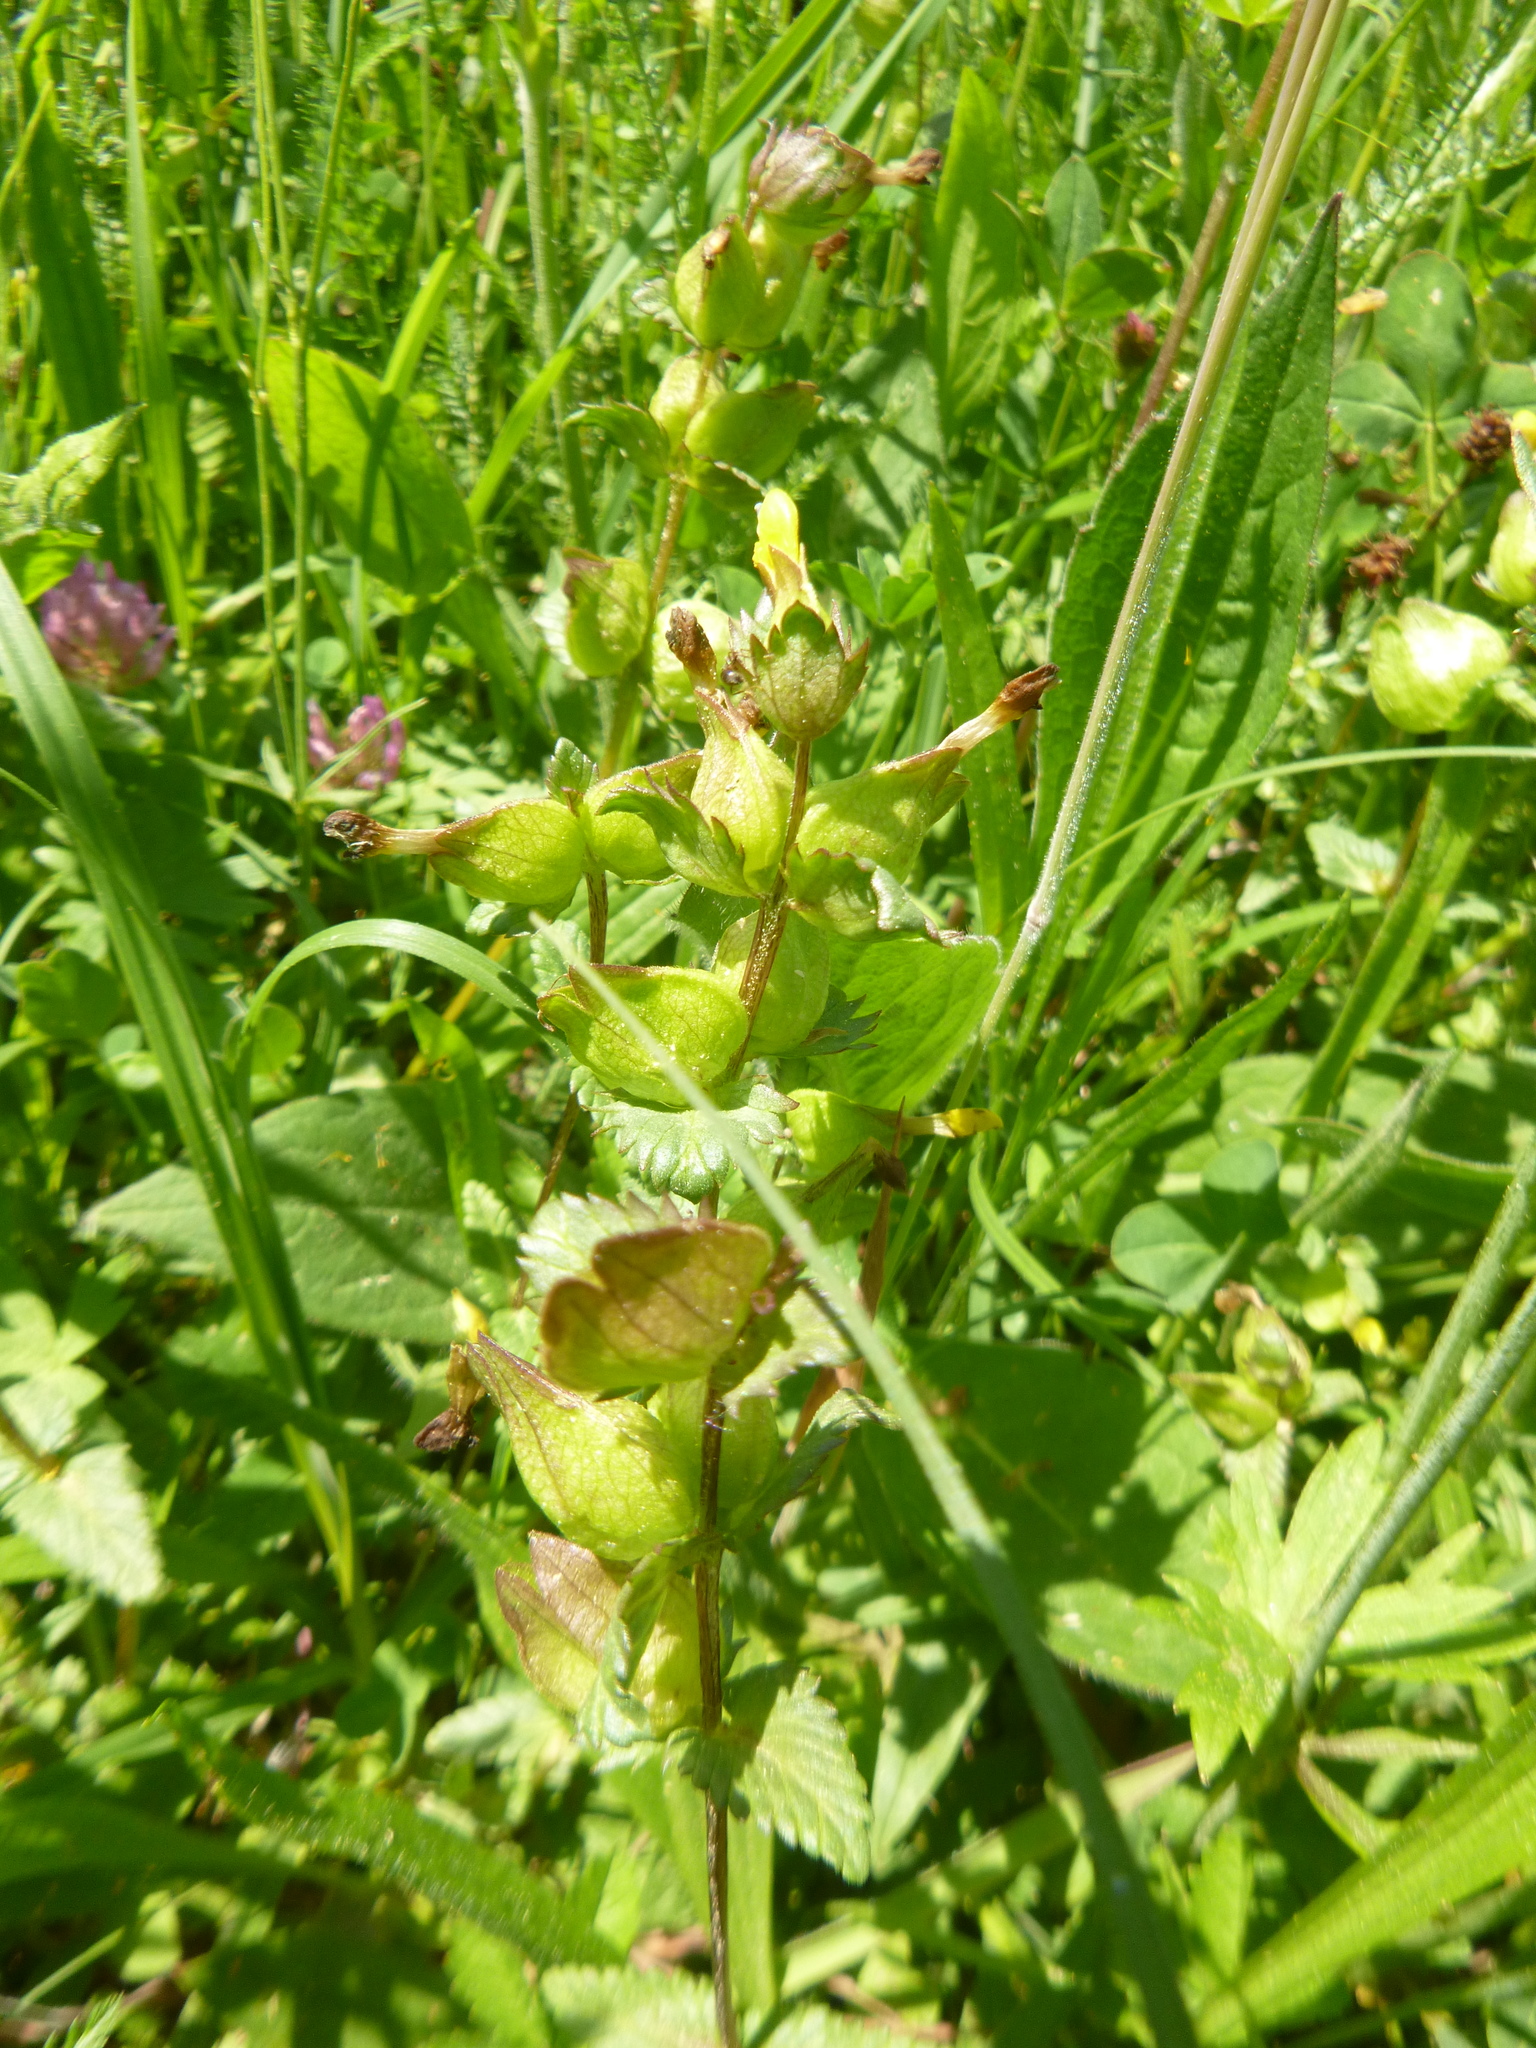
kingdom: Plantae
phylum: Tracheophyta
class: Magnoliopsida
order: Lamiales
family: Orobanchaceae
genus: Rhinanthus
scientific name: Rhinanthus minor
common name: Yellow-rattle
